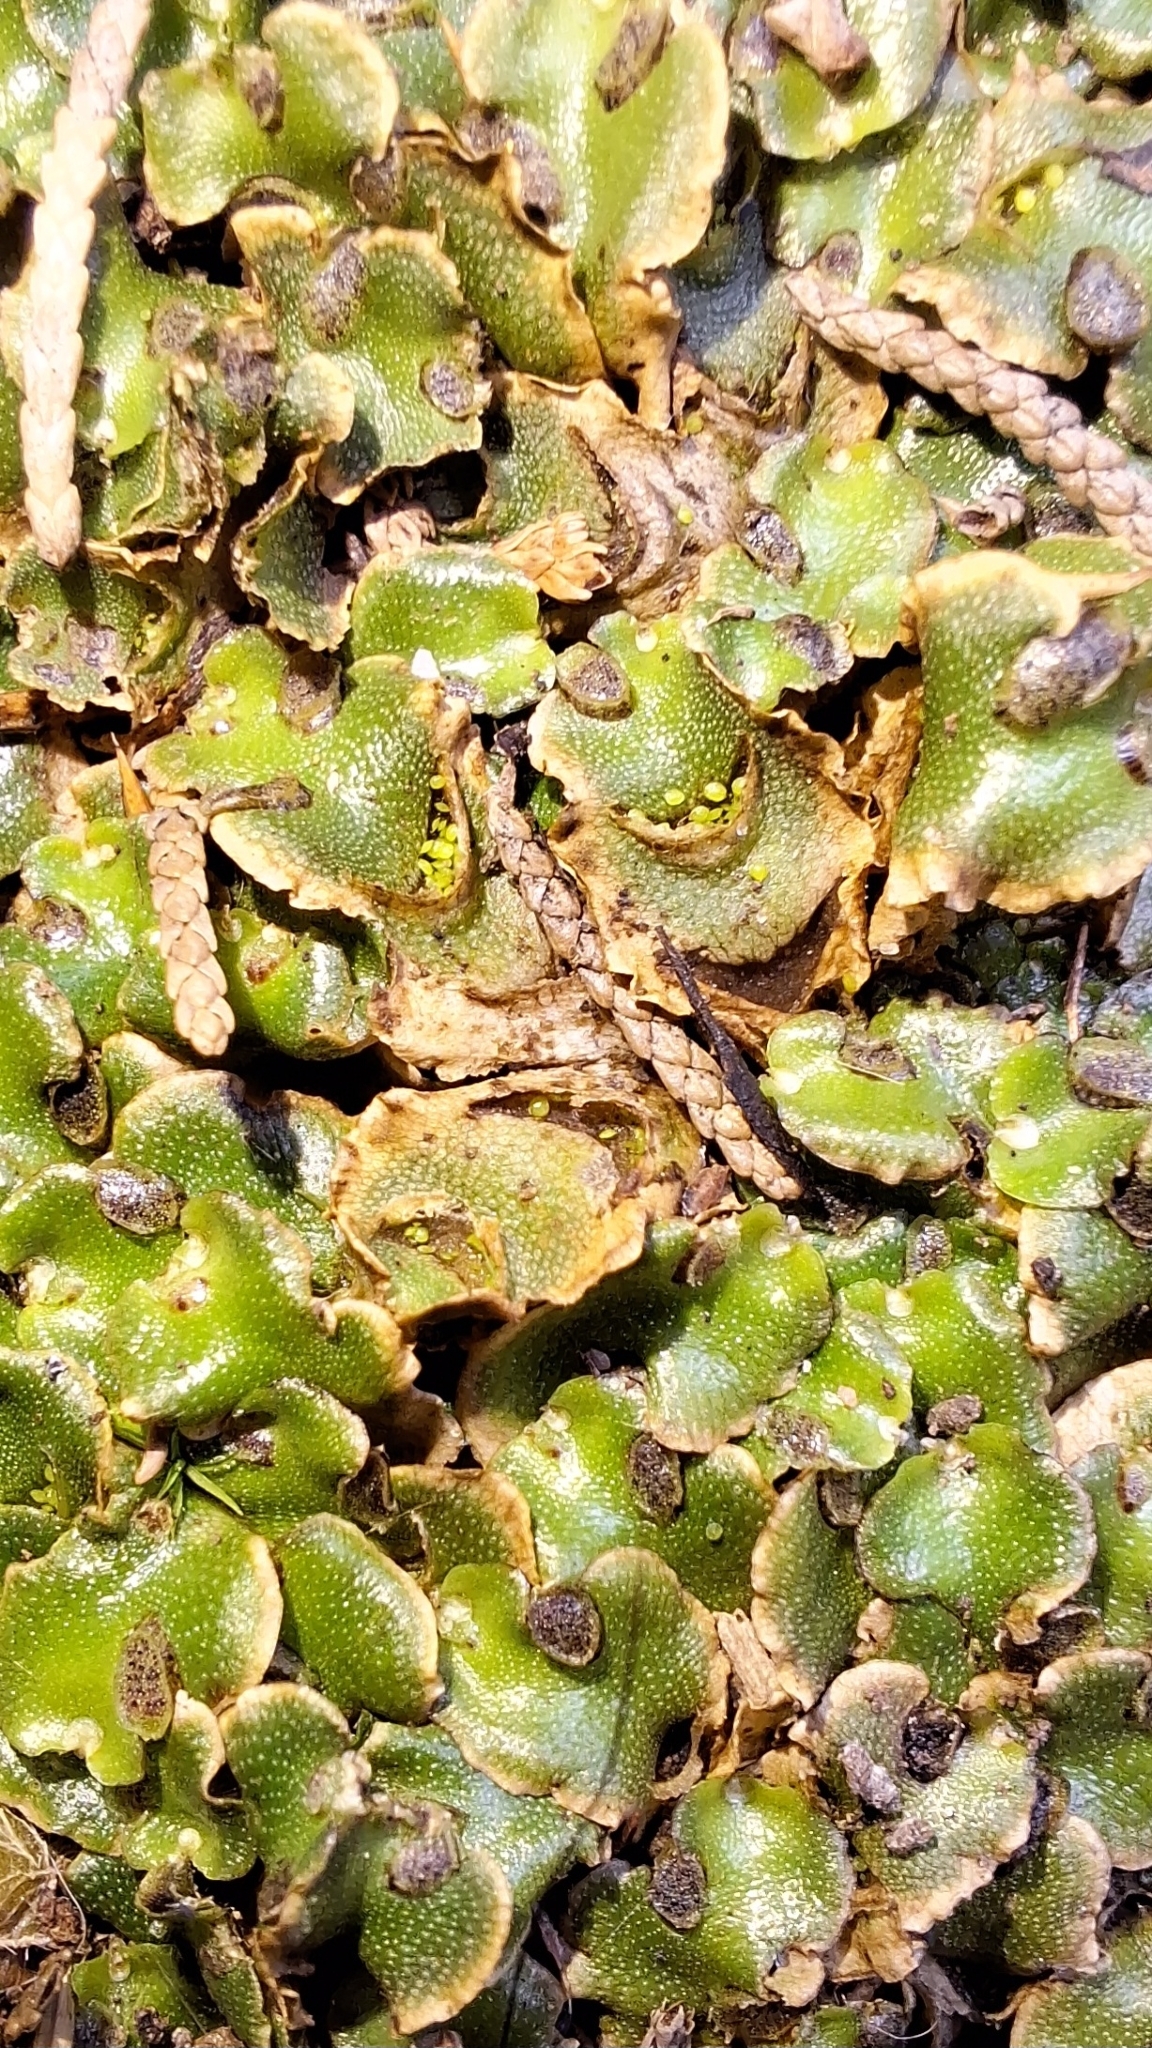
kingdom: Plantae
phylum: Marchantiophyta
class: Marchantiopsida
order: Lunulariales
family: Lunulariaceae
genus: Lunularia
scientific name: Lunularia cruciata
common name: Crescent-cup liverwort
